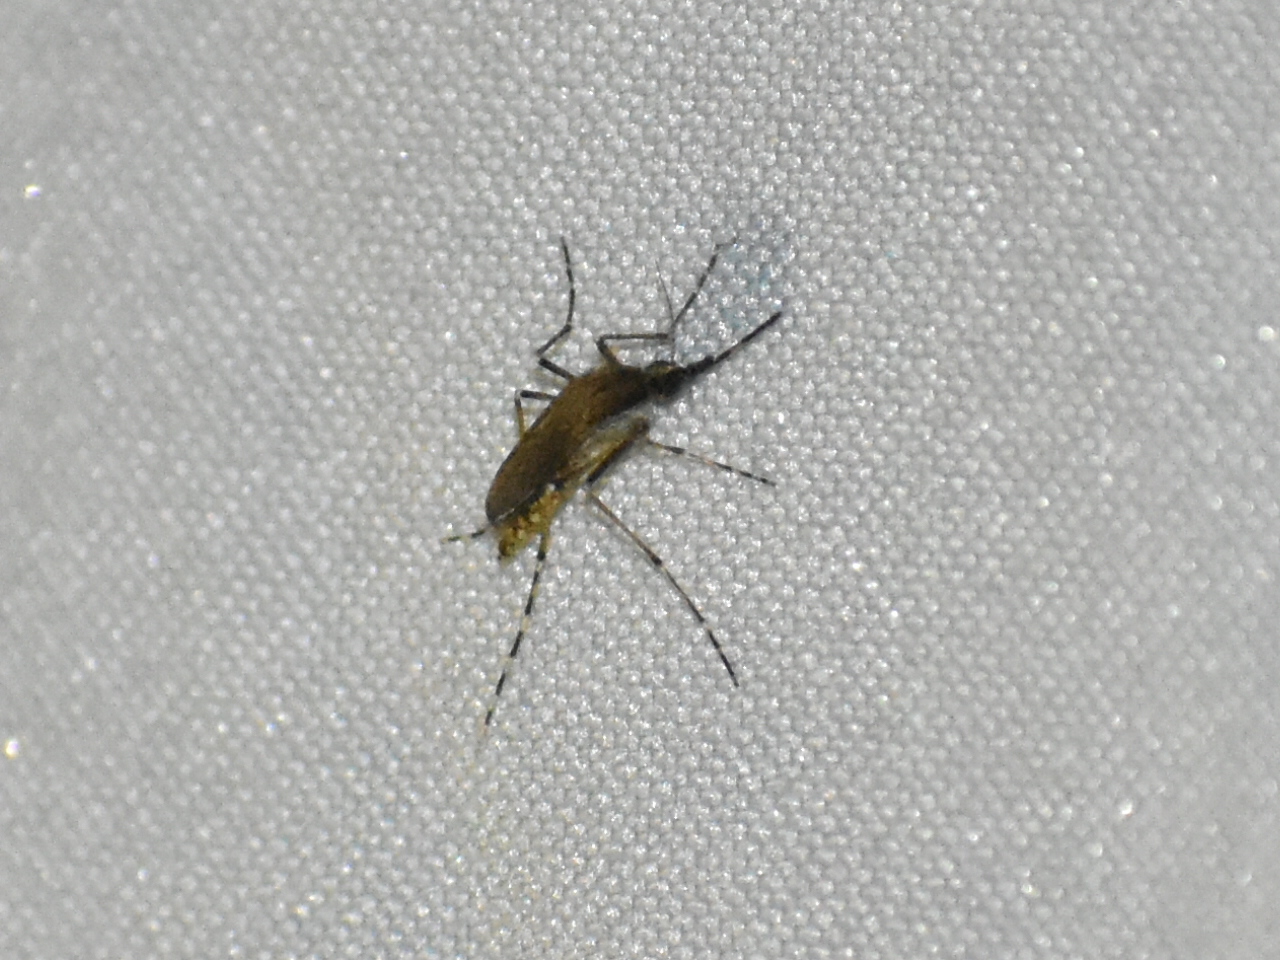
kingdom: Animalia
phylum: Arthropoda
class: Insecta
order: Diptera
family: Culicidae
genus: Coquillettidia
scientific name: Coquillettidia perturbans
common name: Cattail mosquito
